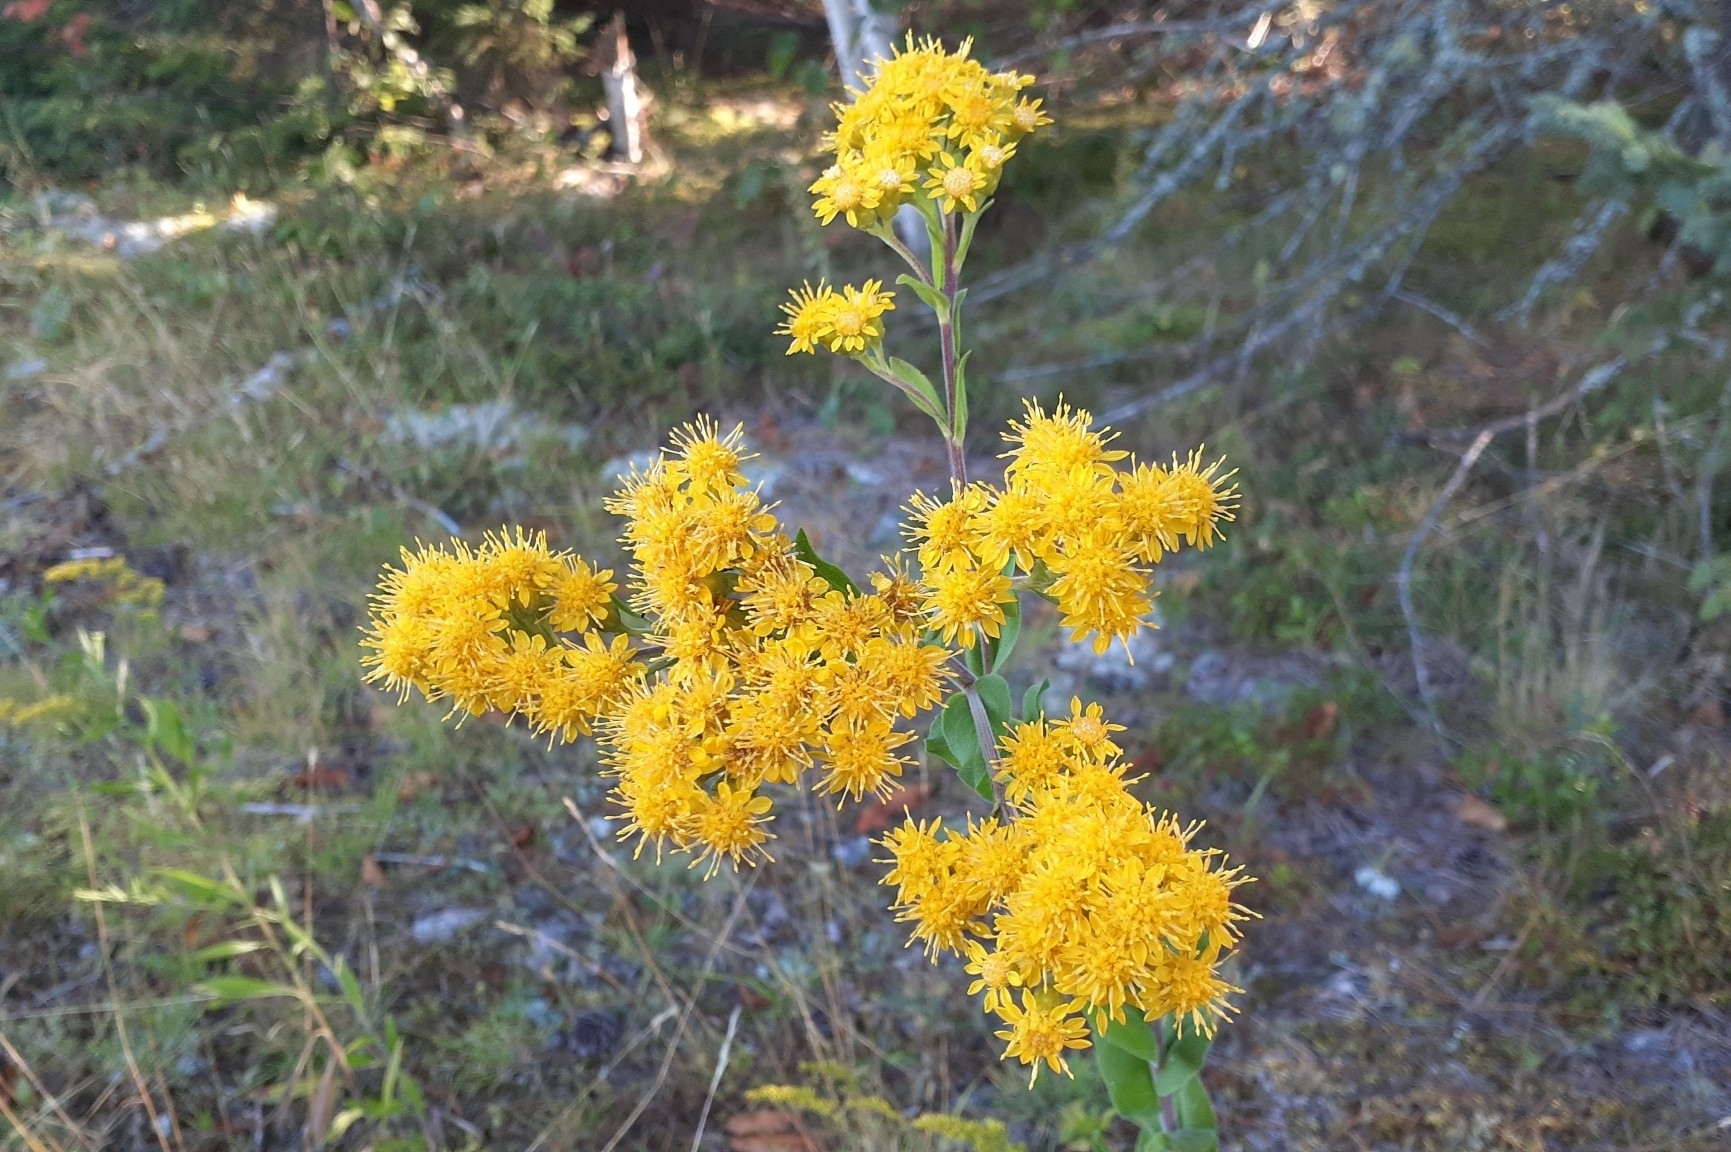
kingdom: Plantae
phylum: Tracheophyta
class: Magnoliopsida
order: Asterales
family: Asteraceae
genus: Solidago
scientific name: Solidago rigida
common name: Rigid goldenrod
